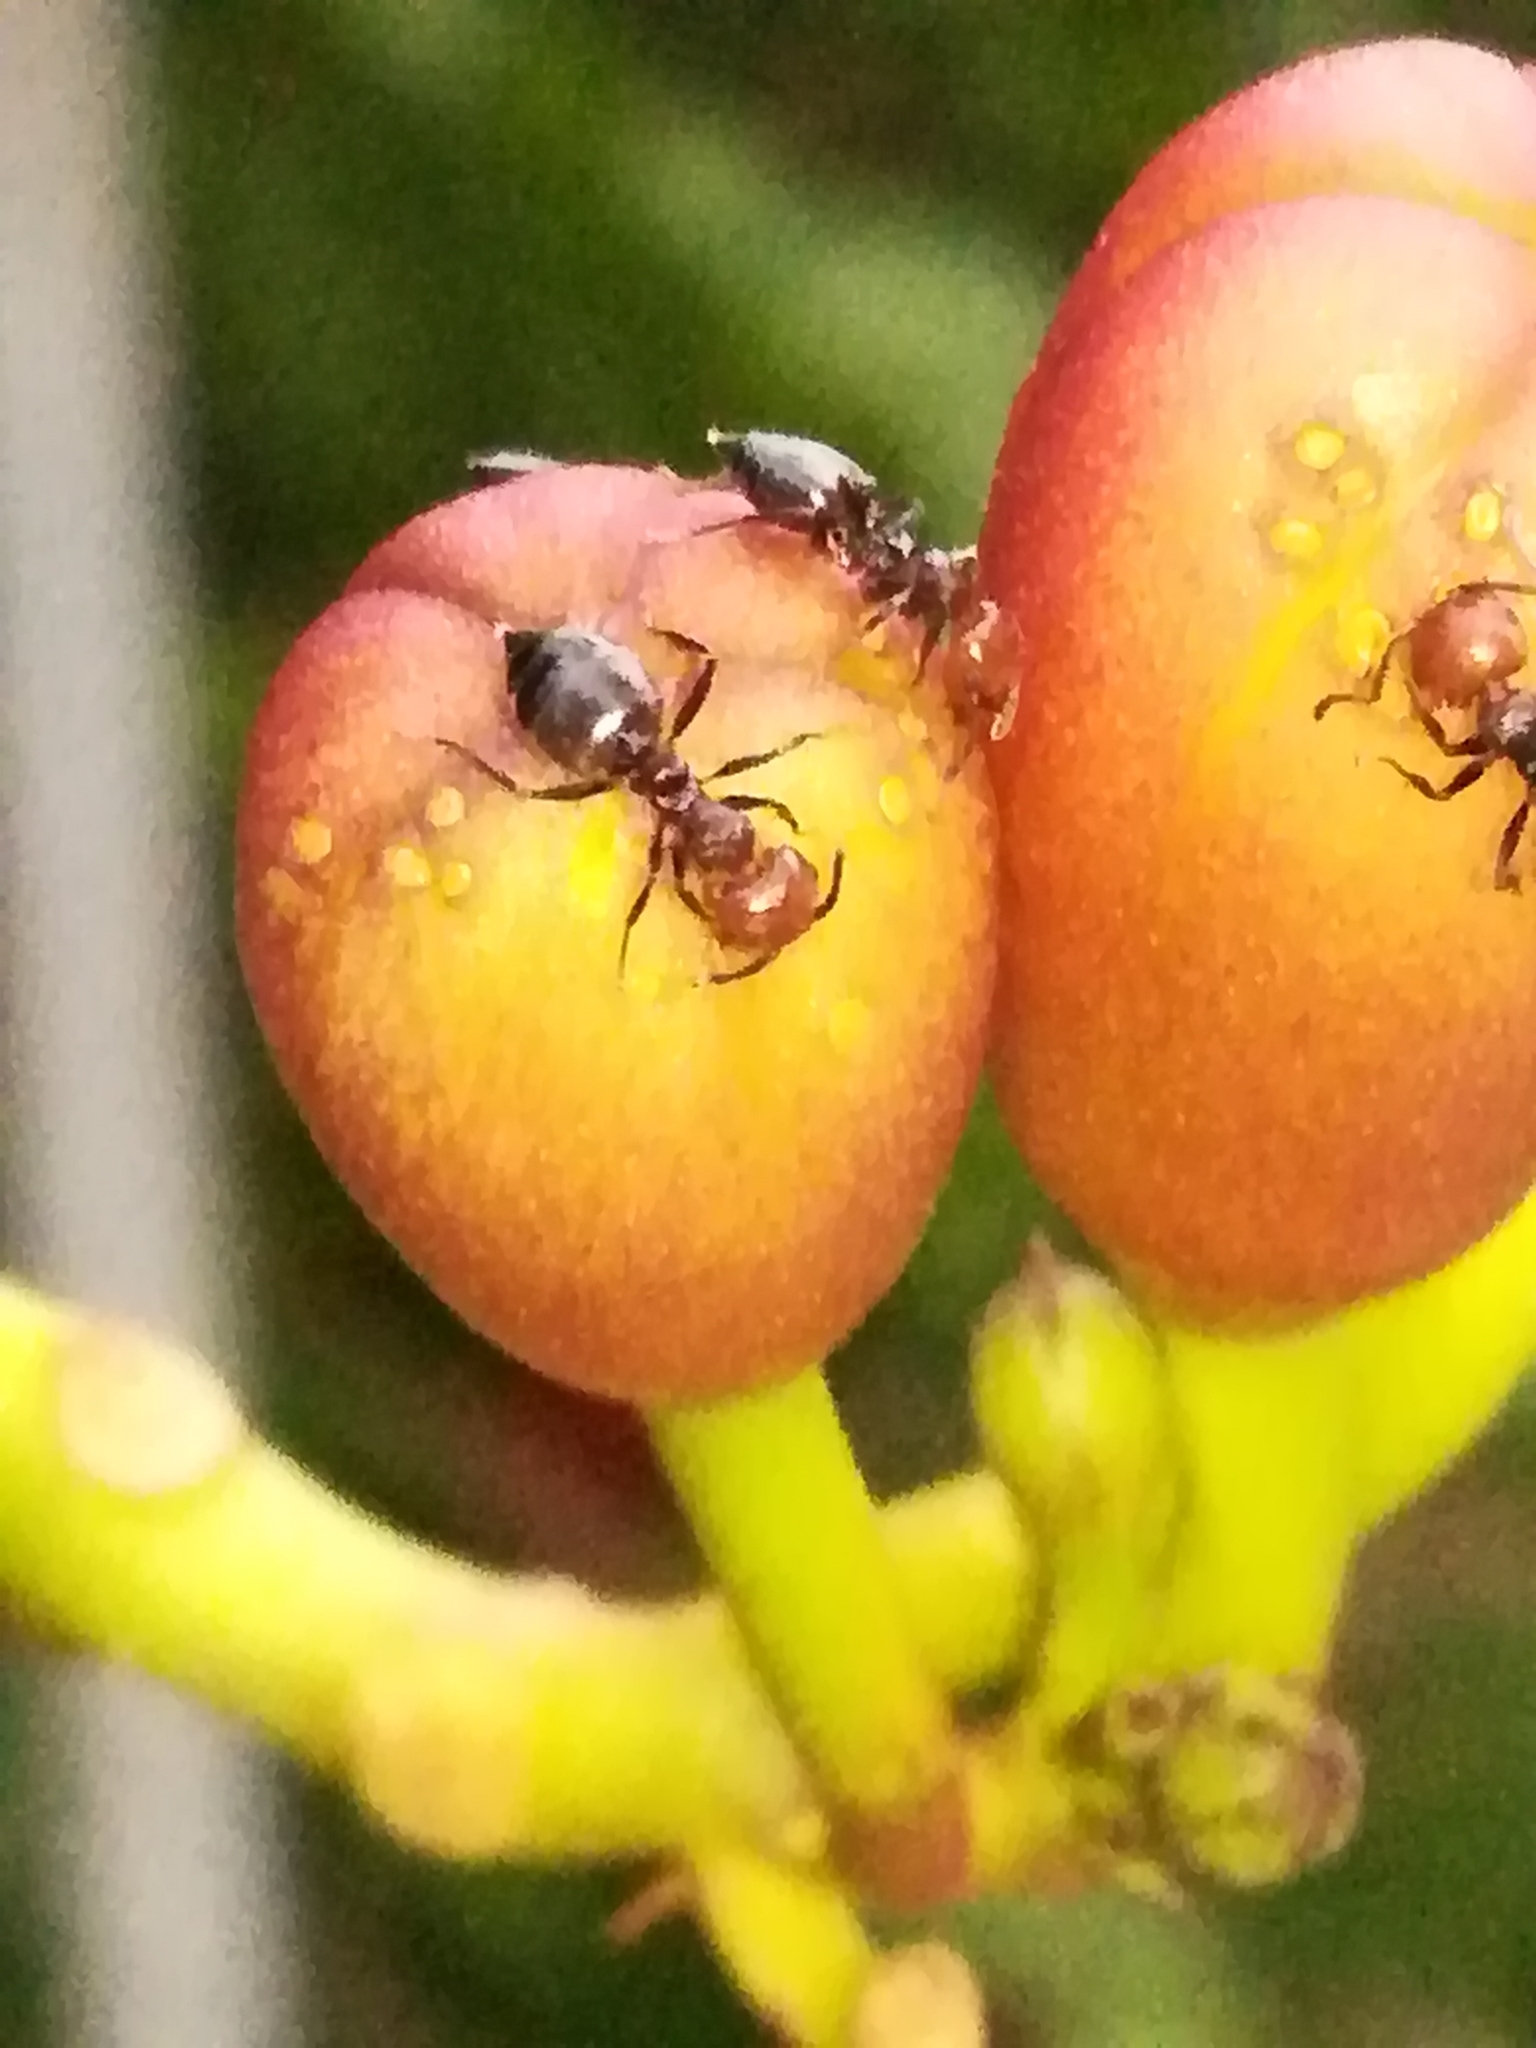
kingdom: Animalia
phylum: Arthropoda
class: Insecta
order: Hymenoptera
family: Formicidae
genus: Crematogaster
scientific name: Crematogaster scutellaris
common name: Fourmi du liège
